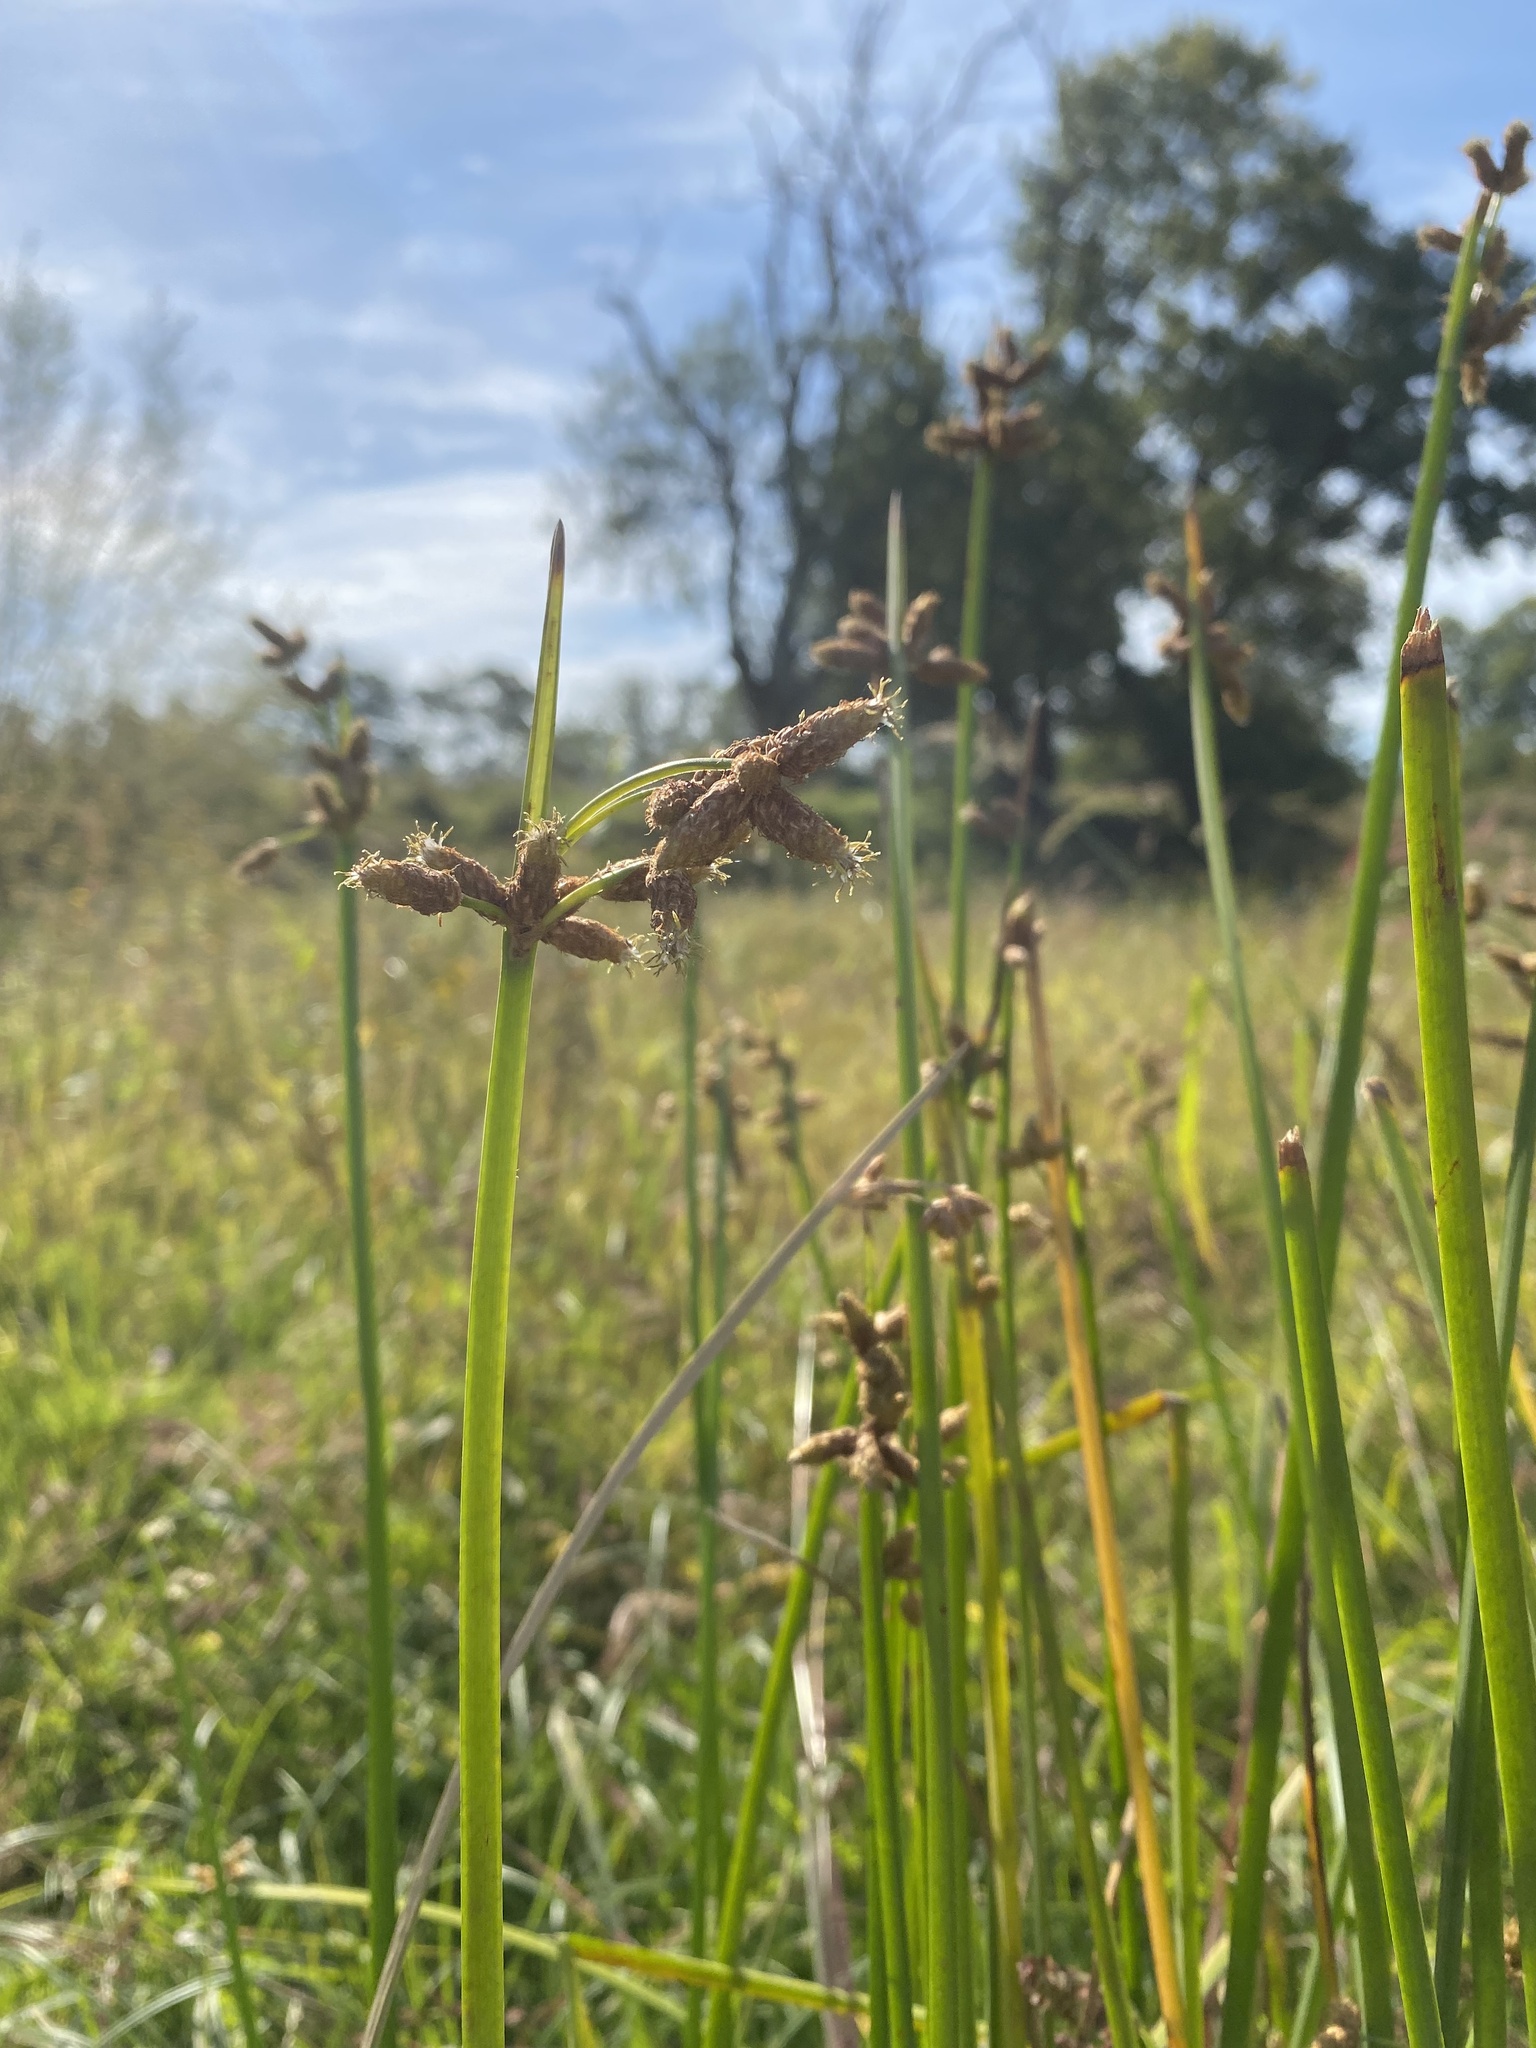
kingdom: Plantae
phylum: Tracheophyta
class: Liliopsida
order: Poales
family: Cyperaceae
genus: Schoenoplectus
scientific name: Schoenoplectus litoralis
